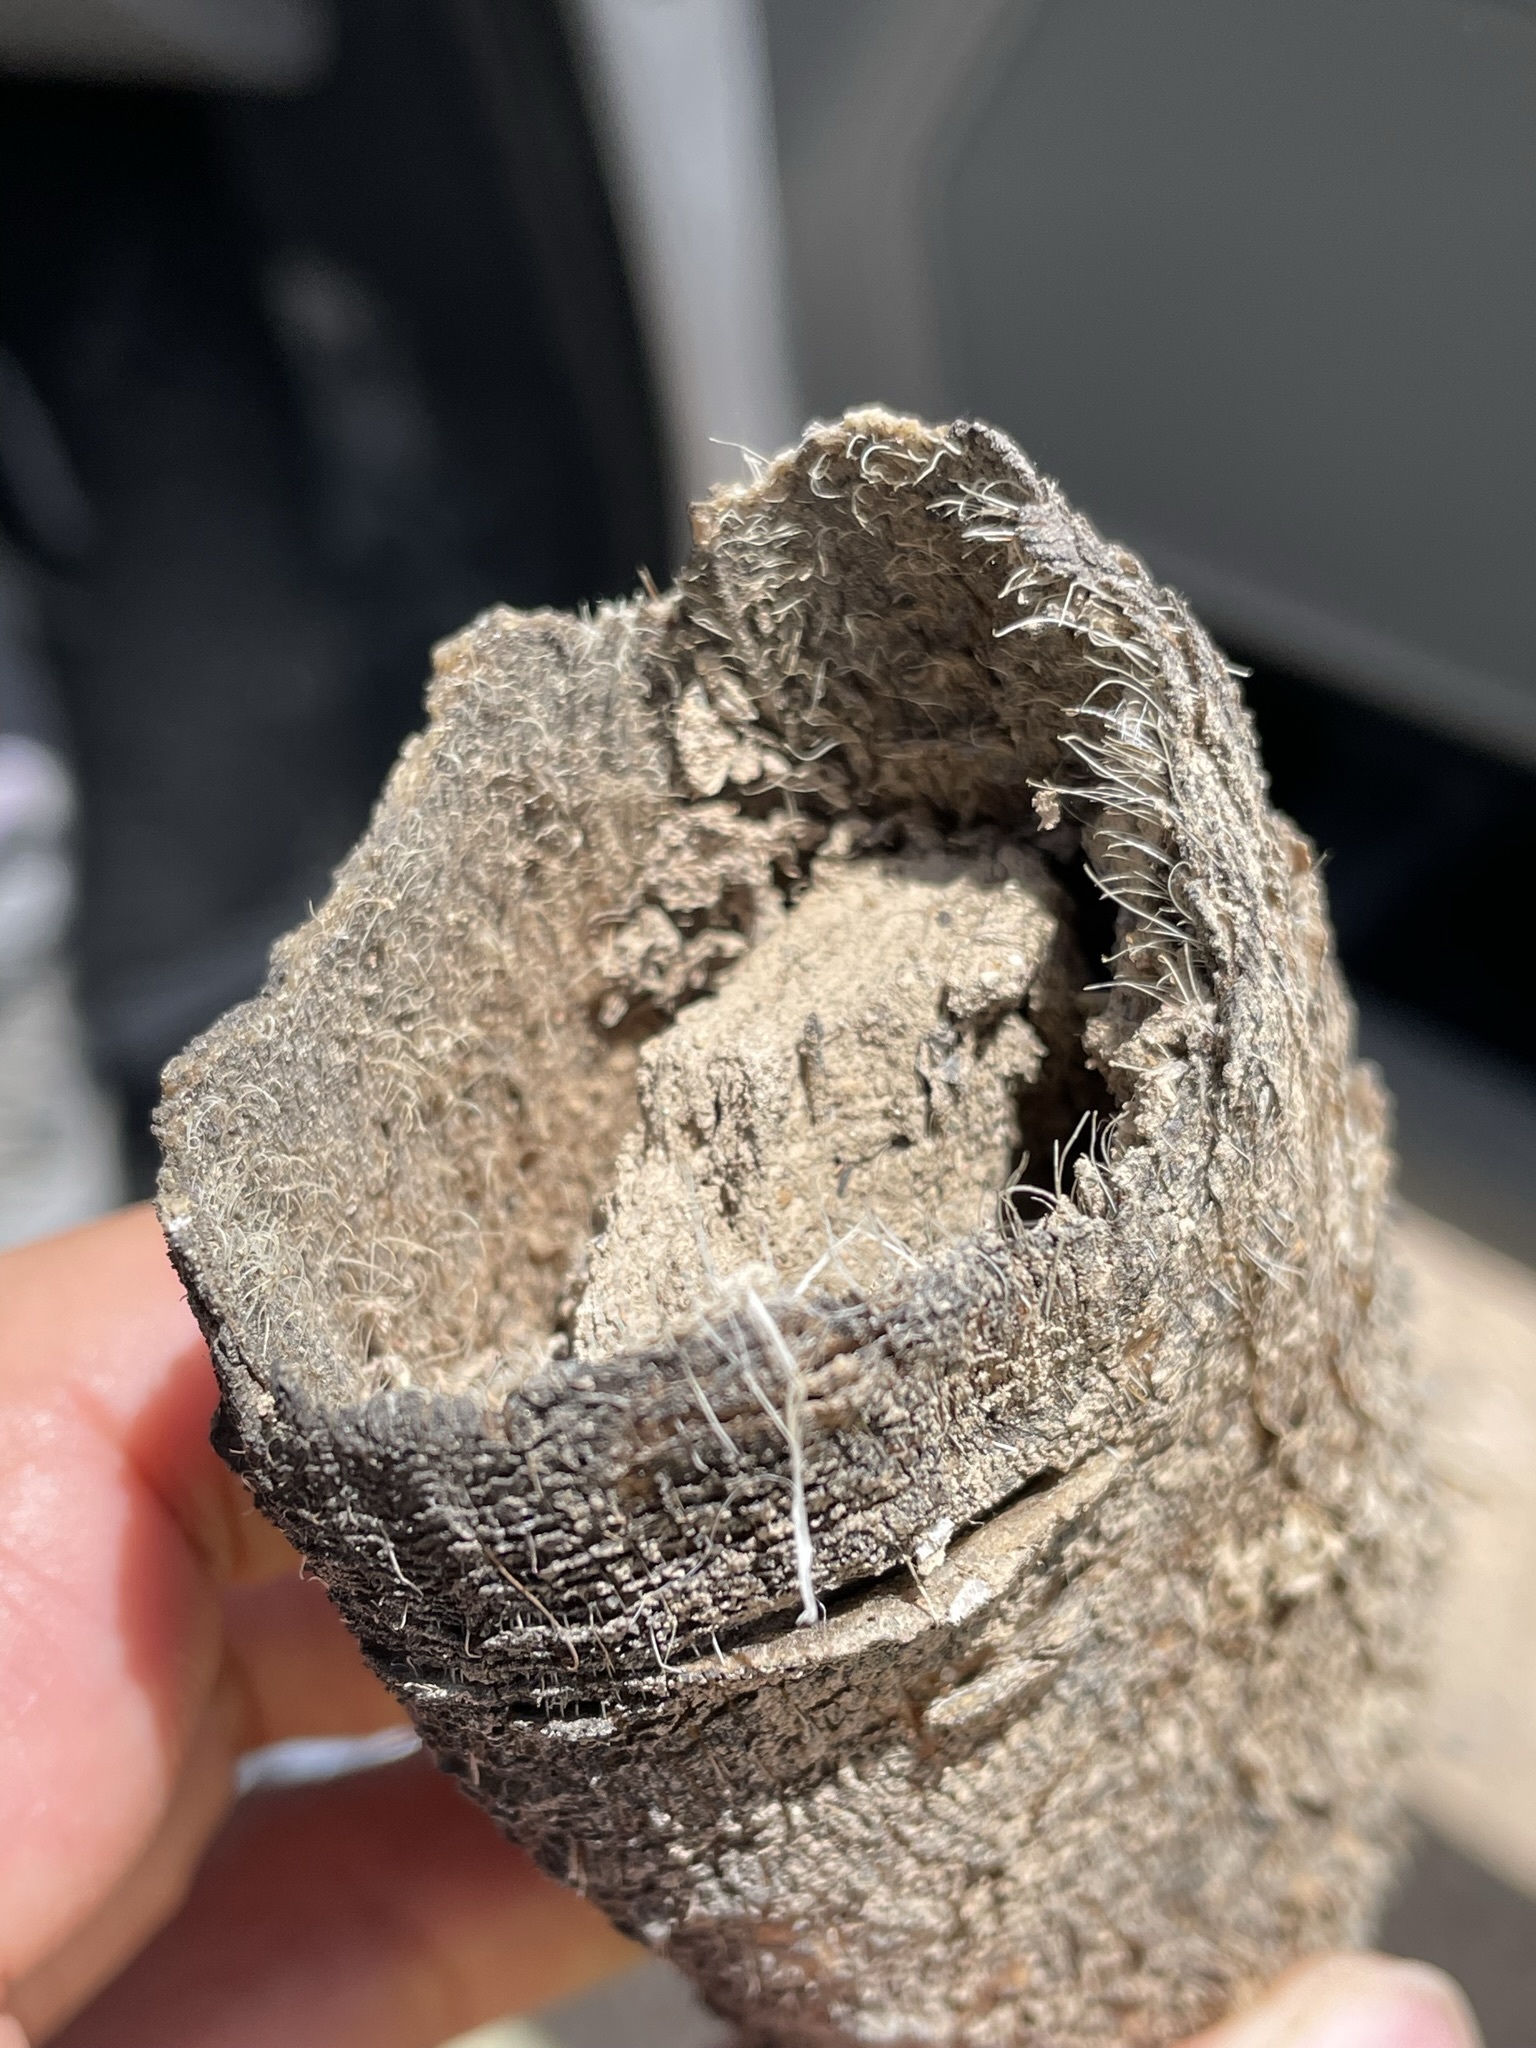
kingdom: Animalia
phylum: Chordata
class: Mammalia
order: Artiodactyla
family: Antilocapridae
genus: Antilocapra
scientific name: Antilocapra americana
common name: Pronghorn
